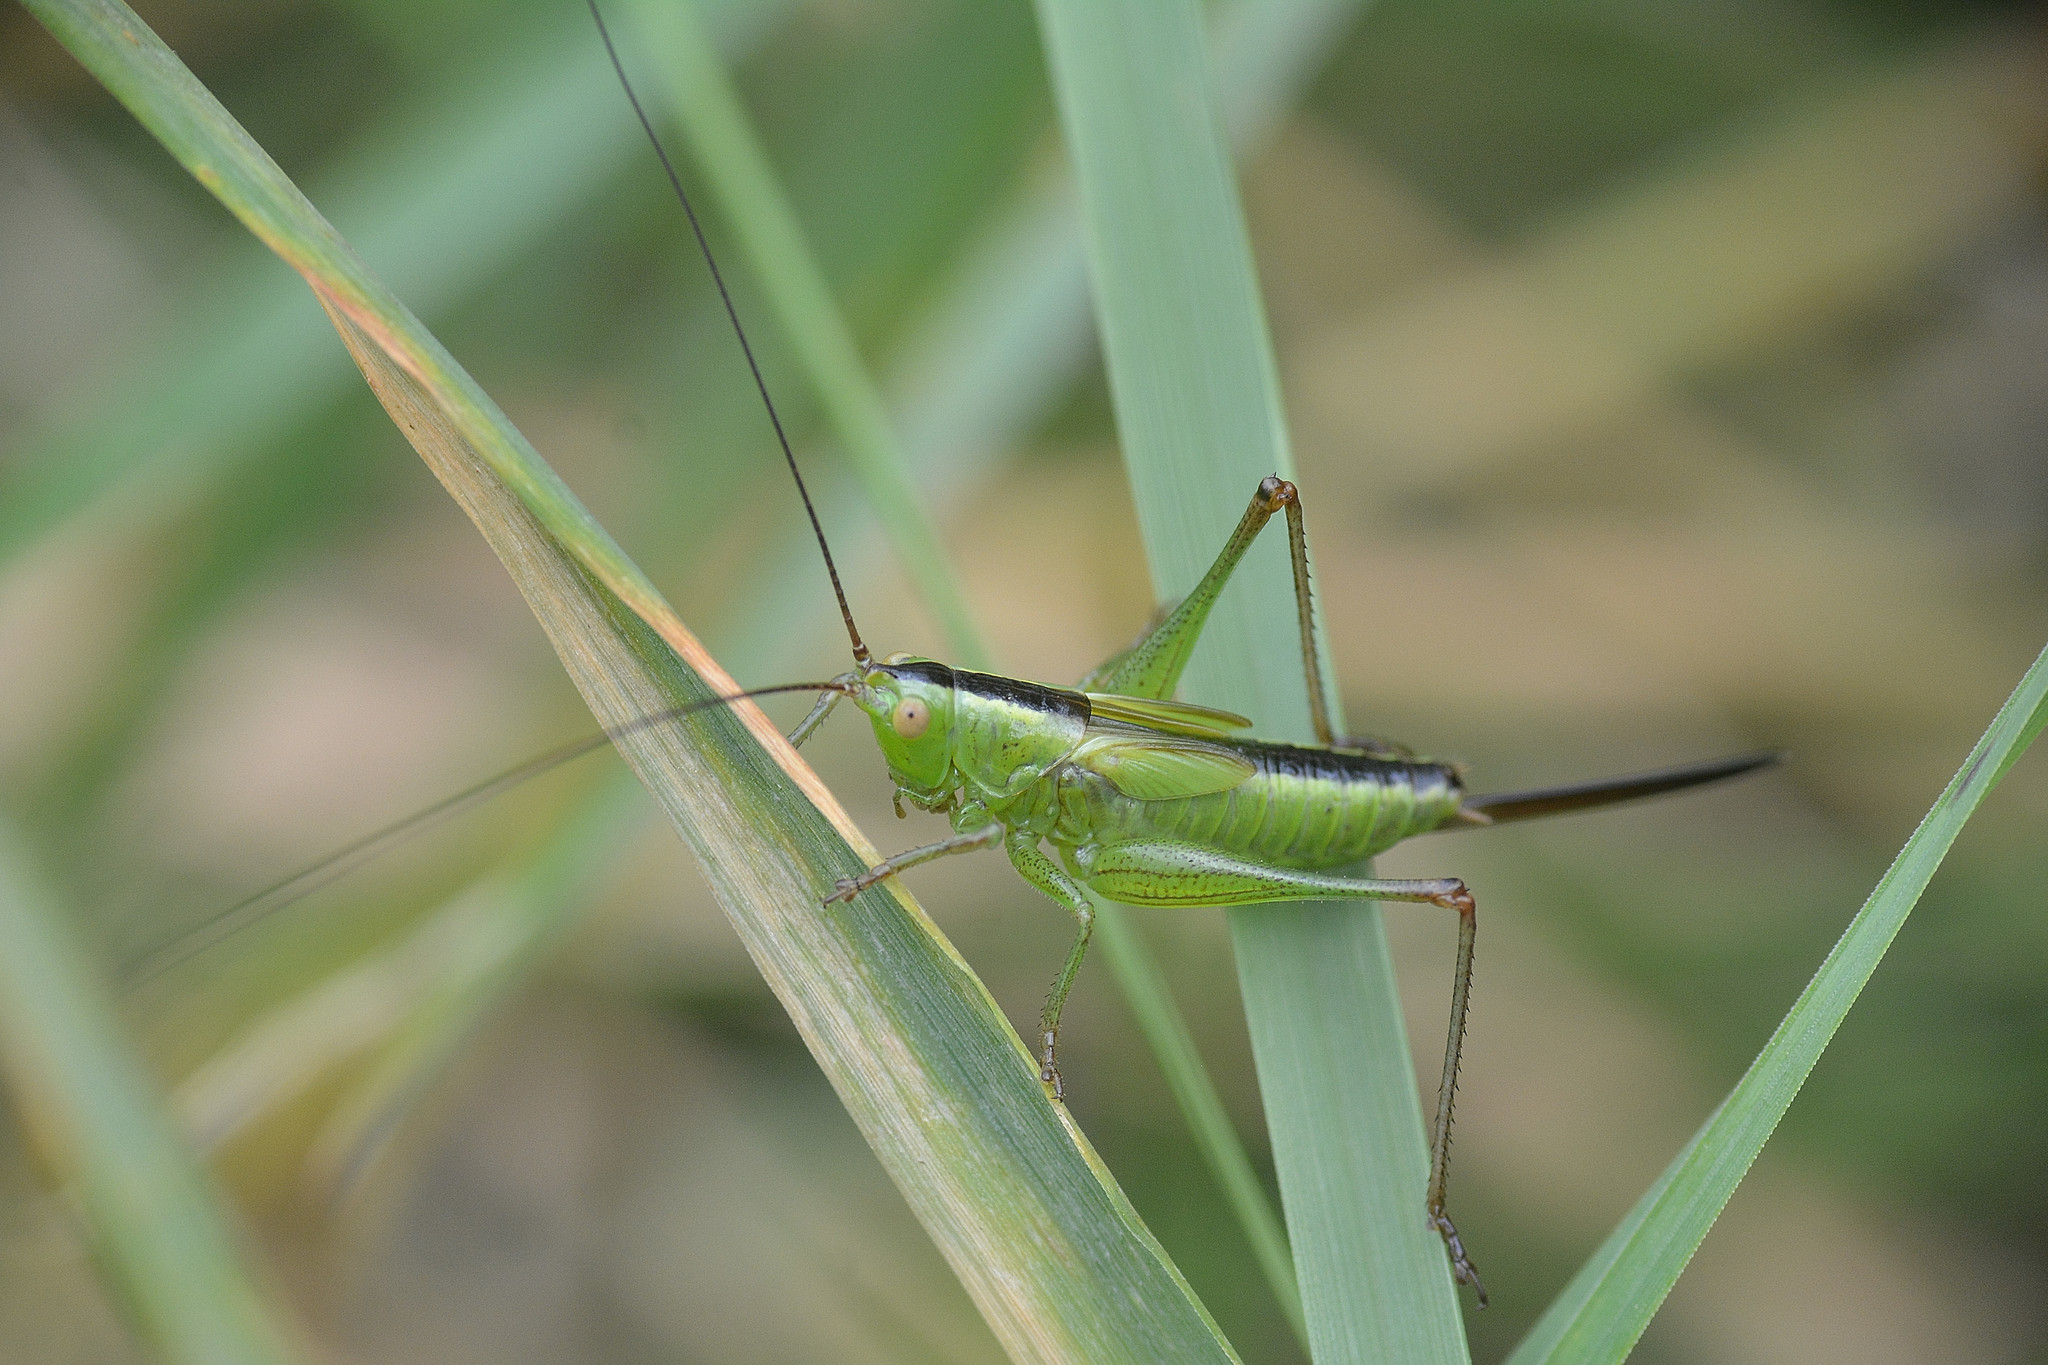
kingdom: Animalia
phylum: Arthropoda
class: Insecta
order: Orthoptera
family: Tettigoniidae
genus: Conocephalus
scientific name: Conocephalus fuscus
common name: Long-winged conehead
